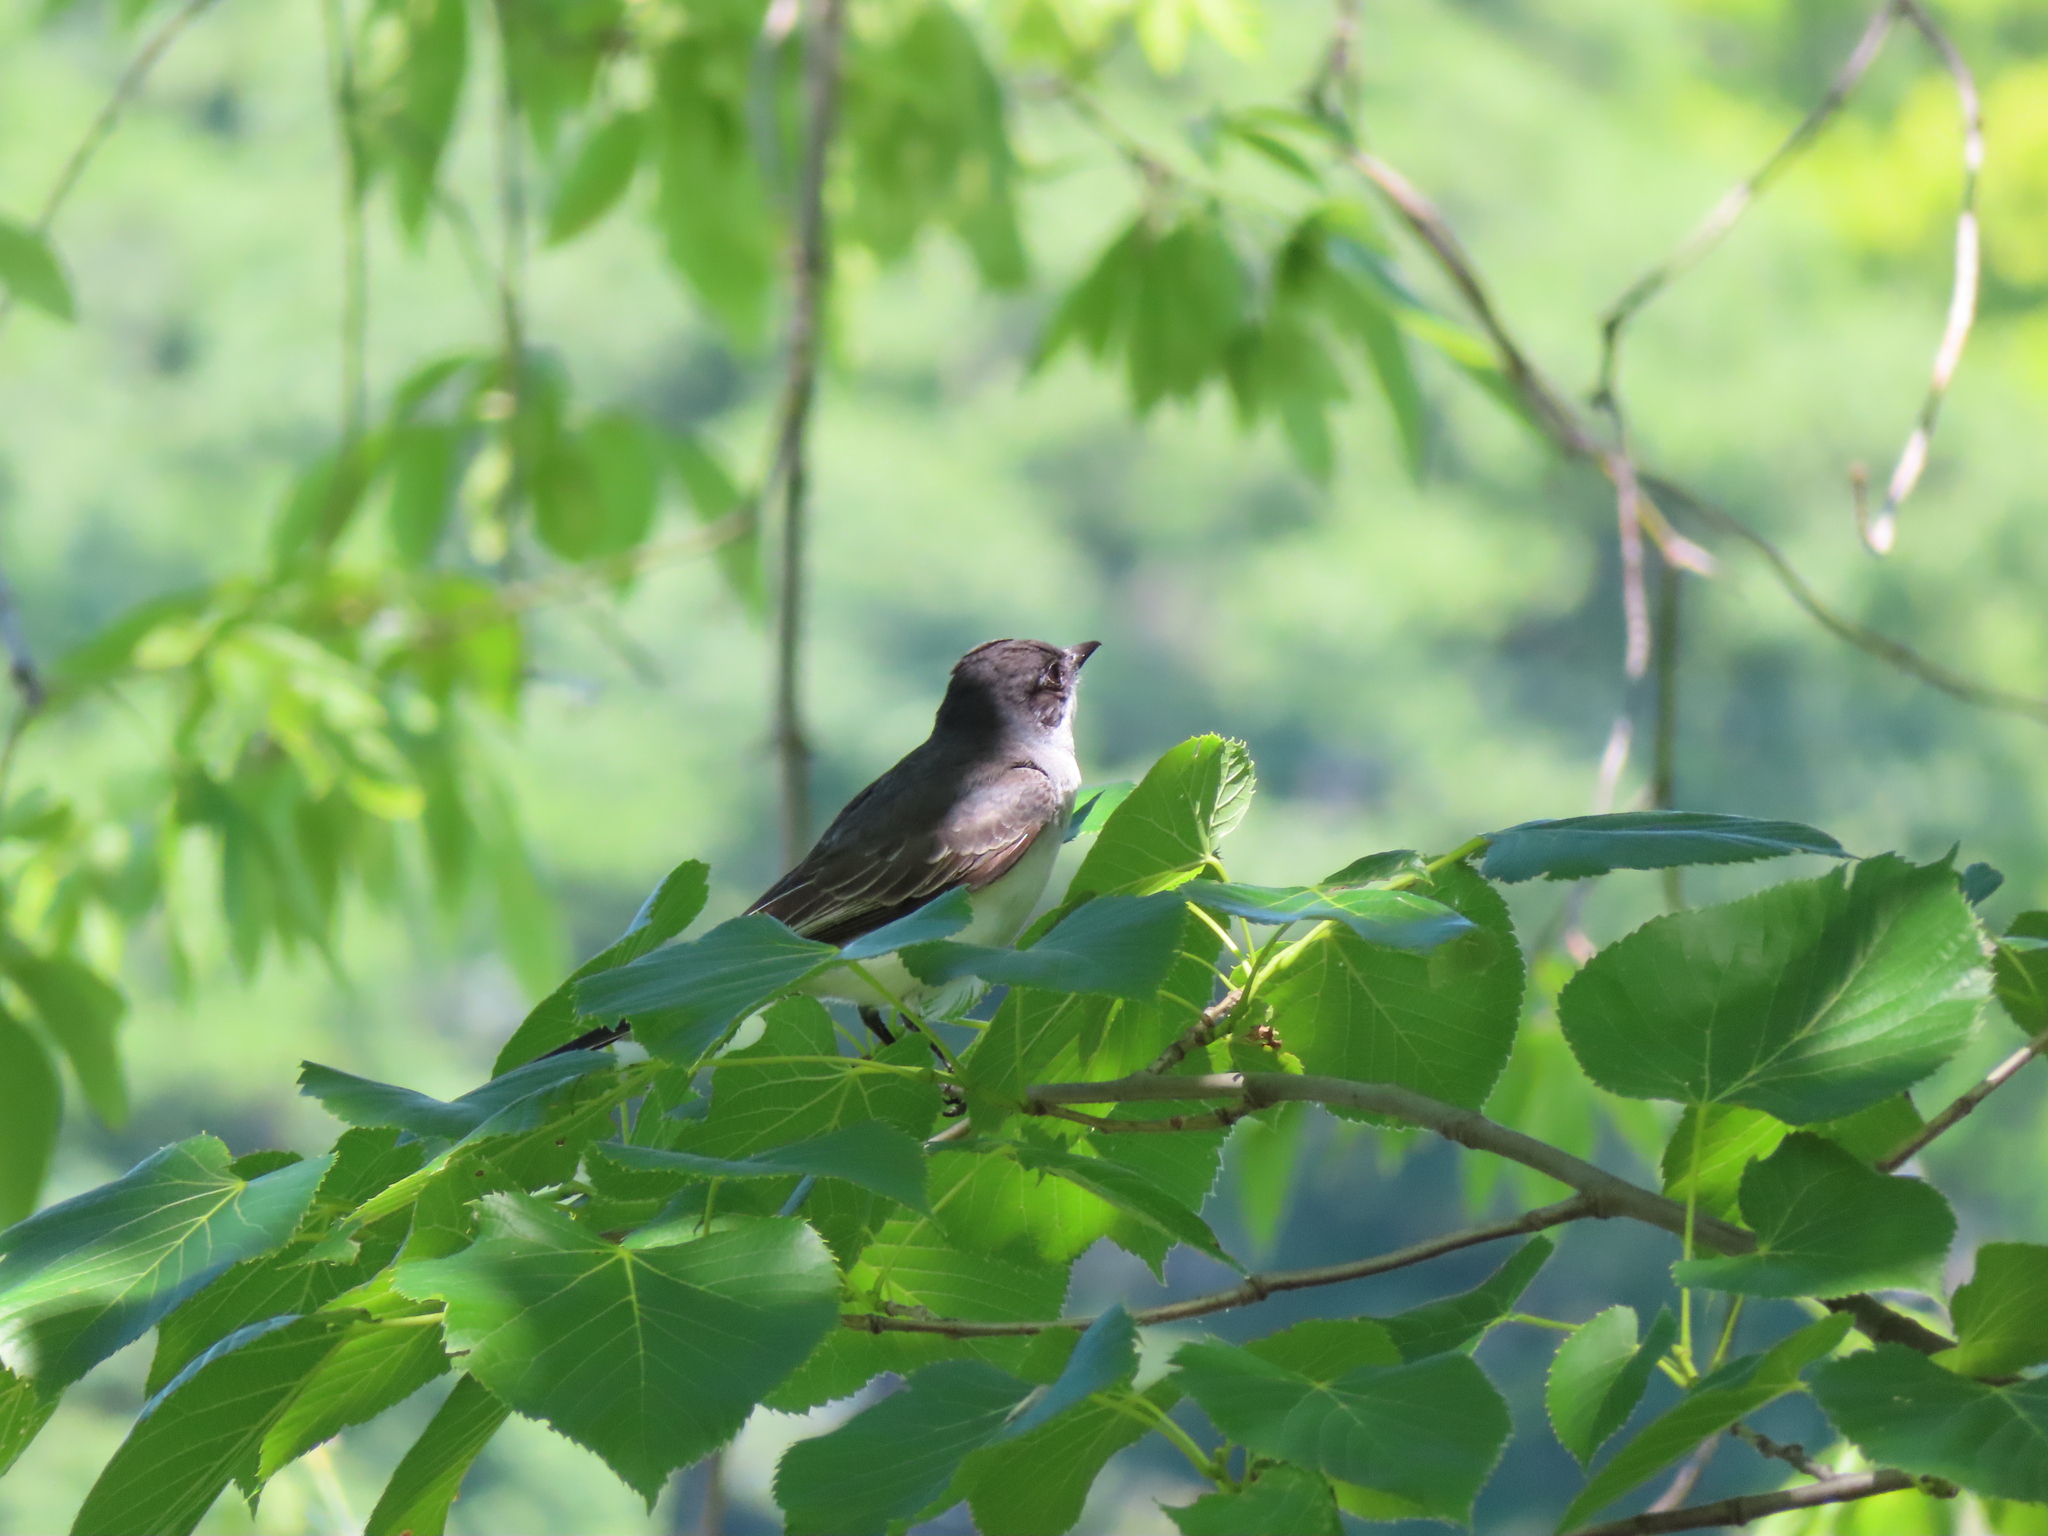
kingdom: Animalia
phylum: Chordata
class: Aves
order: Passeriformes
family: Tyrannidae
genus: Tyrannus
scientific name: Tyrannus tyrannus
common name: Eastern kingbird
